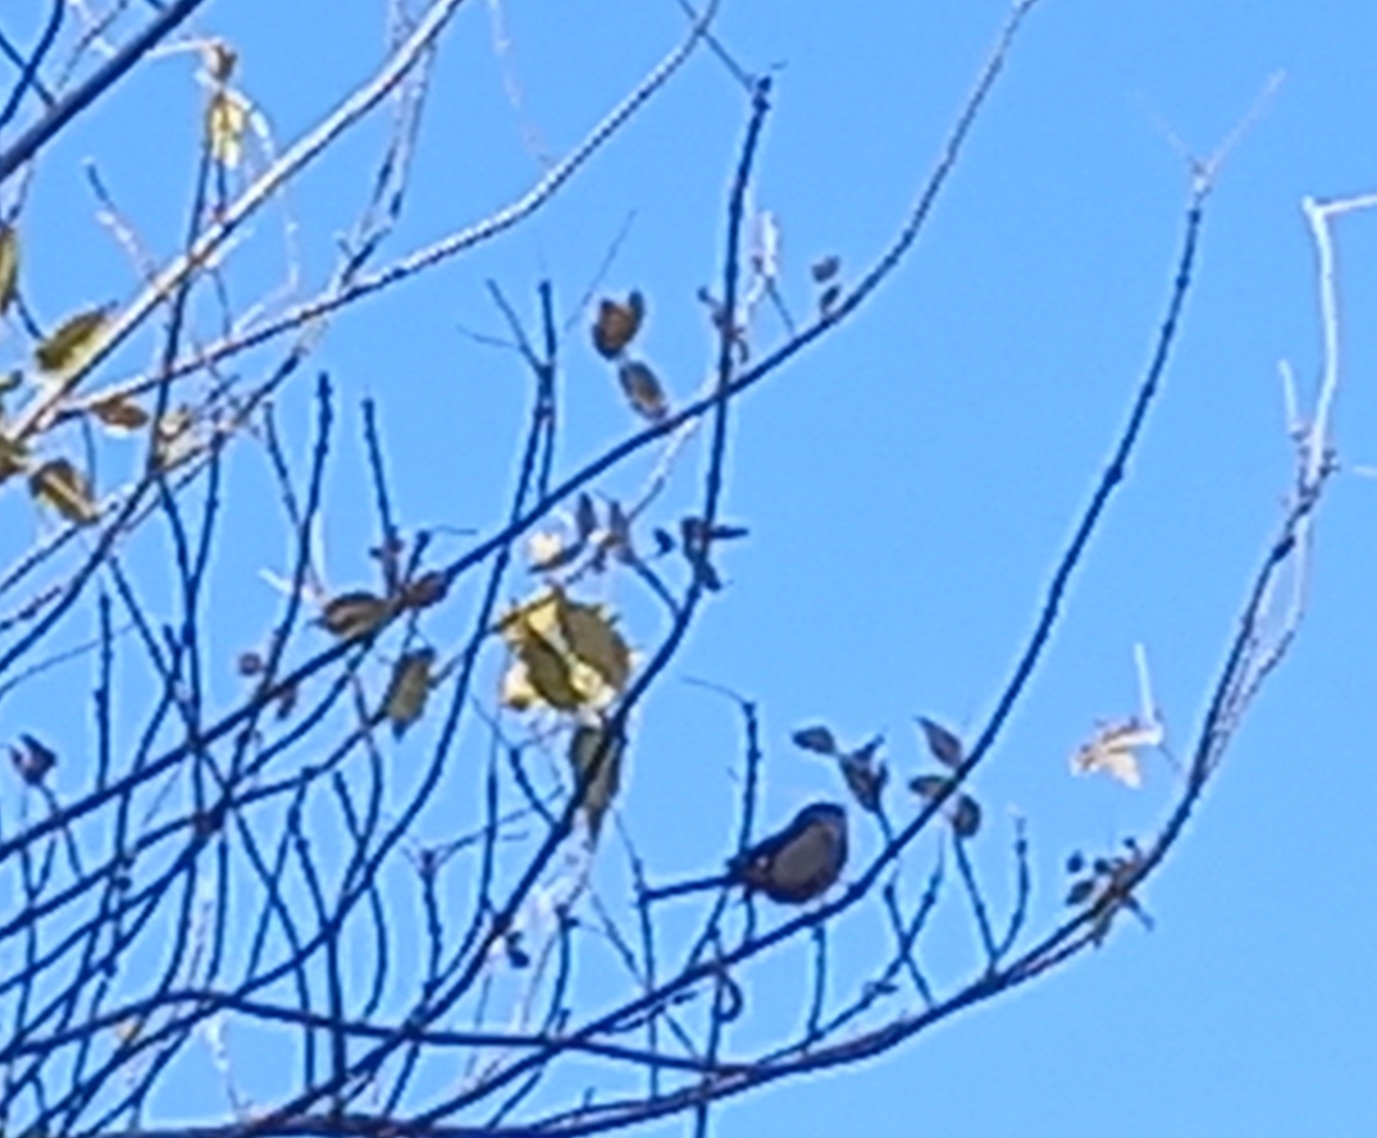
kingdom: Animalia
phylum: Chordata
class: Aves
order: Passeriformes
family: Aegithalidae
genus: Aegithalos
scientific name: Aegithalos caudatus
